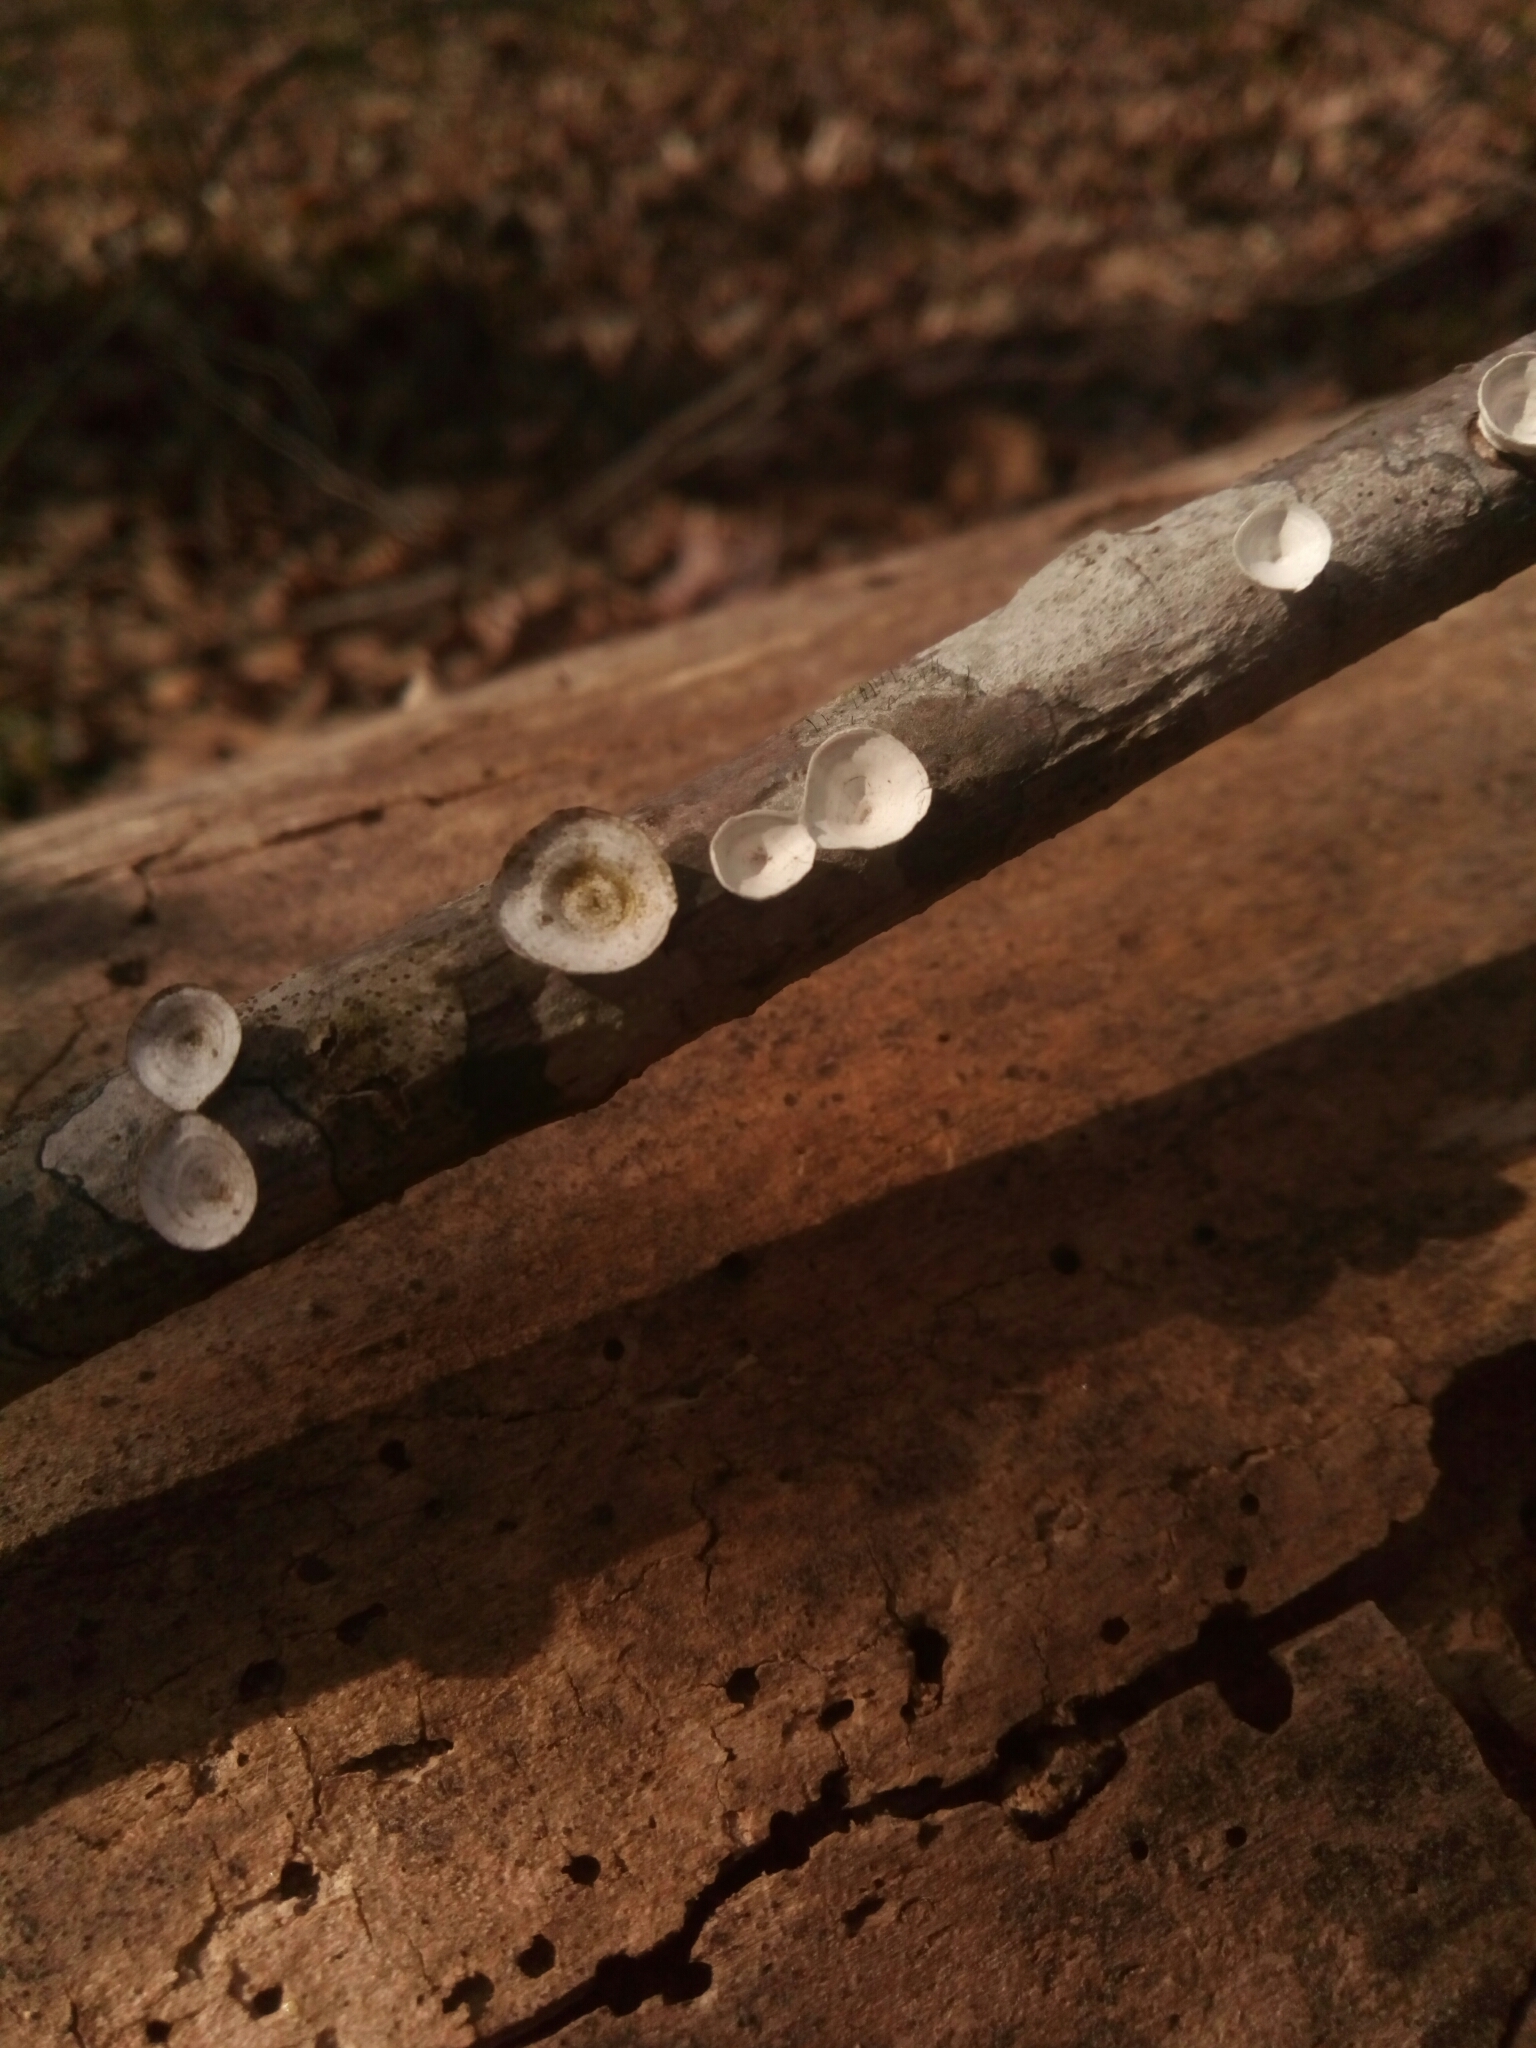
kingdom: Fungi
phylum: Basidiomycota
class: Agaricomycetes
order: Polyporales
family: Polyporaceae
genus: Poronidulus
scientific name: Poronidulus conchifer
